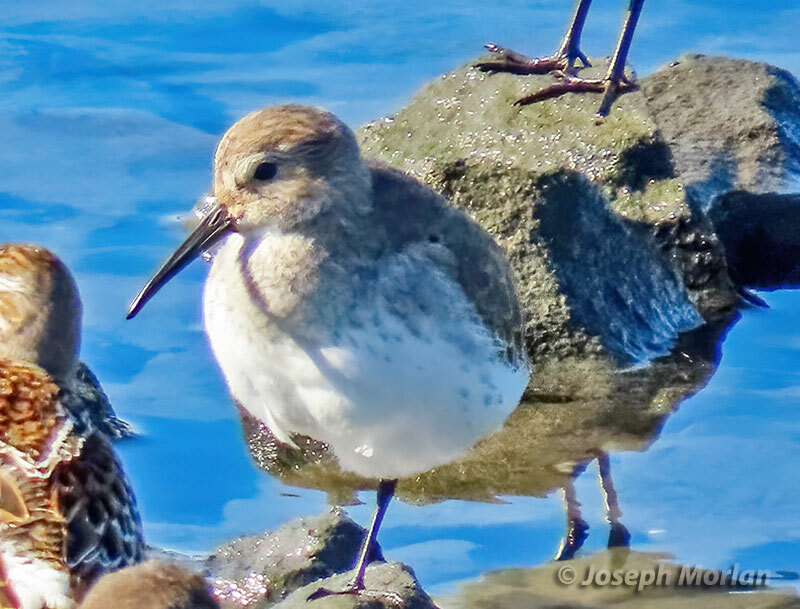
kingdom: Animalia
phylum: Chordata
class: Aves
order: Charadriiformes
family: Scolopacidae
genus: Calidris
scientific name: Calidris alpina
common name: Dunlin
